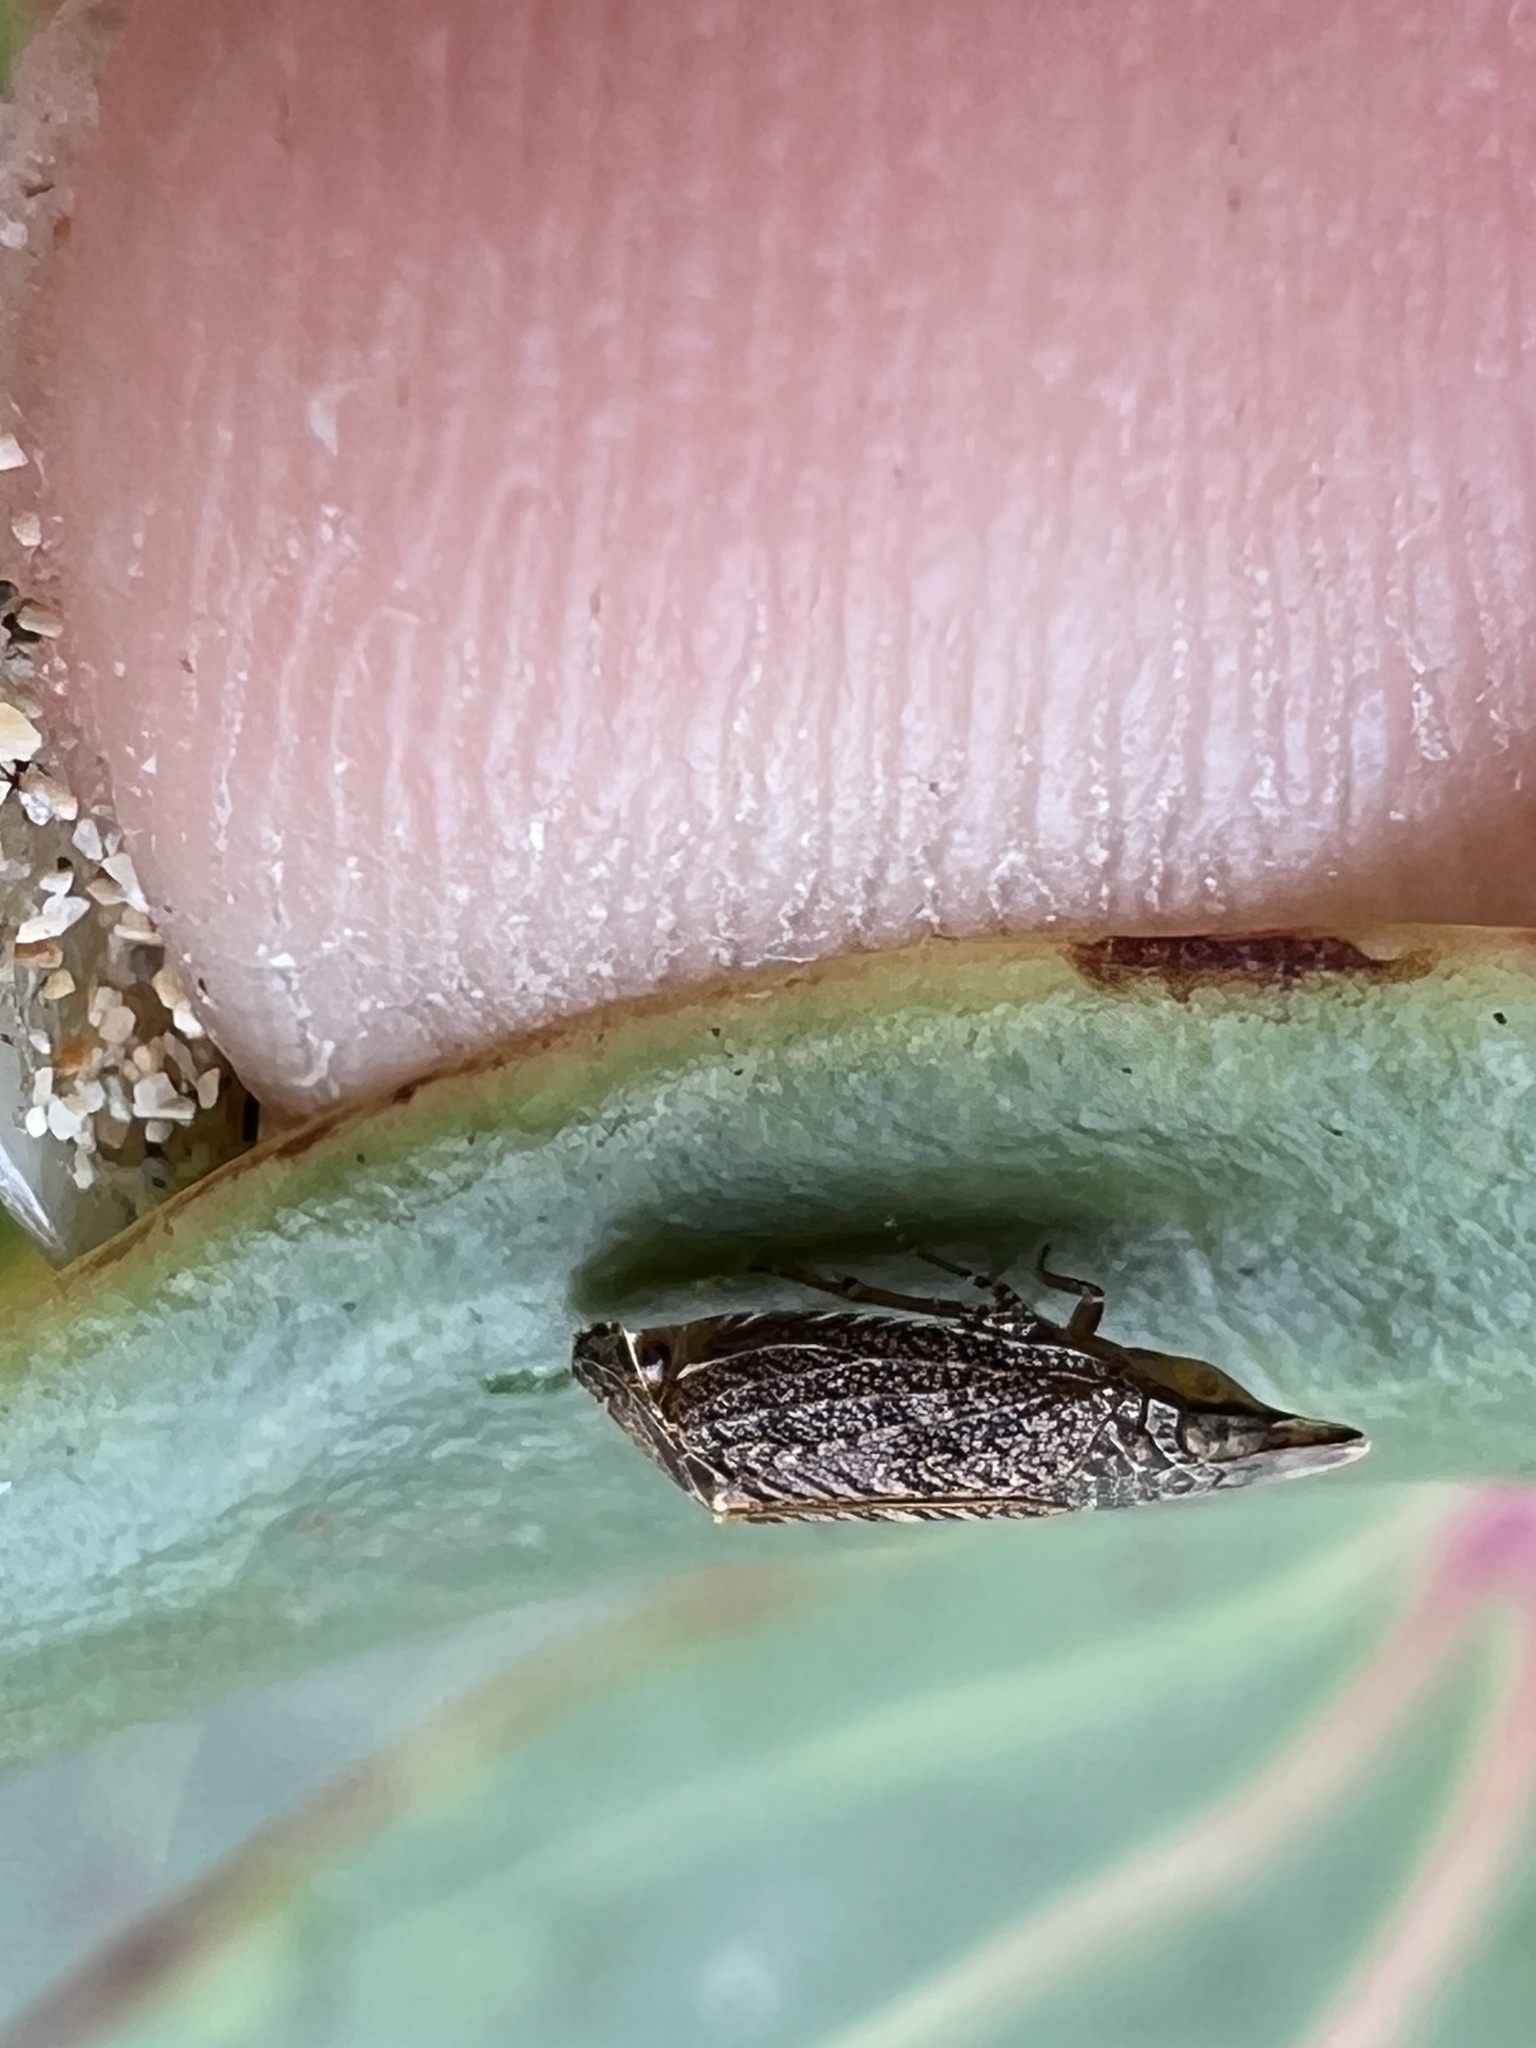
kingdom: Animalia
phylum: Arthropoda
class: Insecta
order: Hemiptera
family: Achilidae
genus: Koloptera
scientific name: Koloptera longiceps
